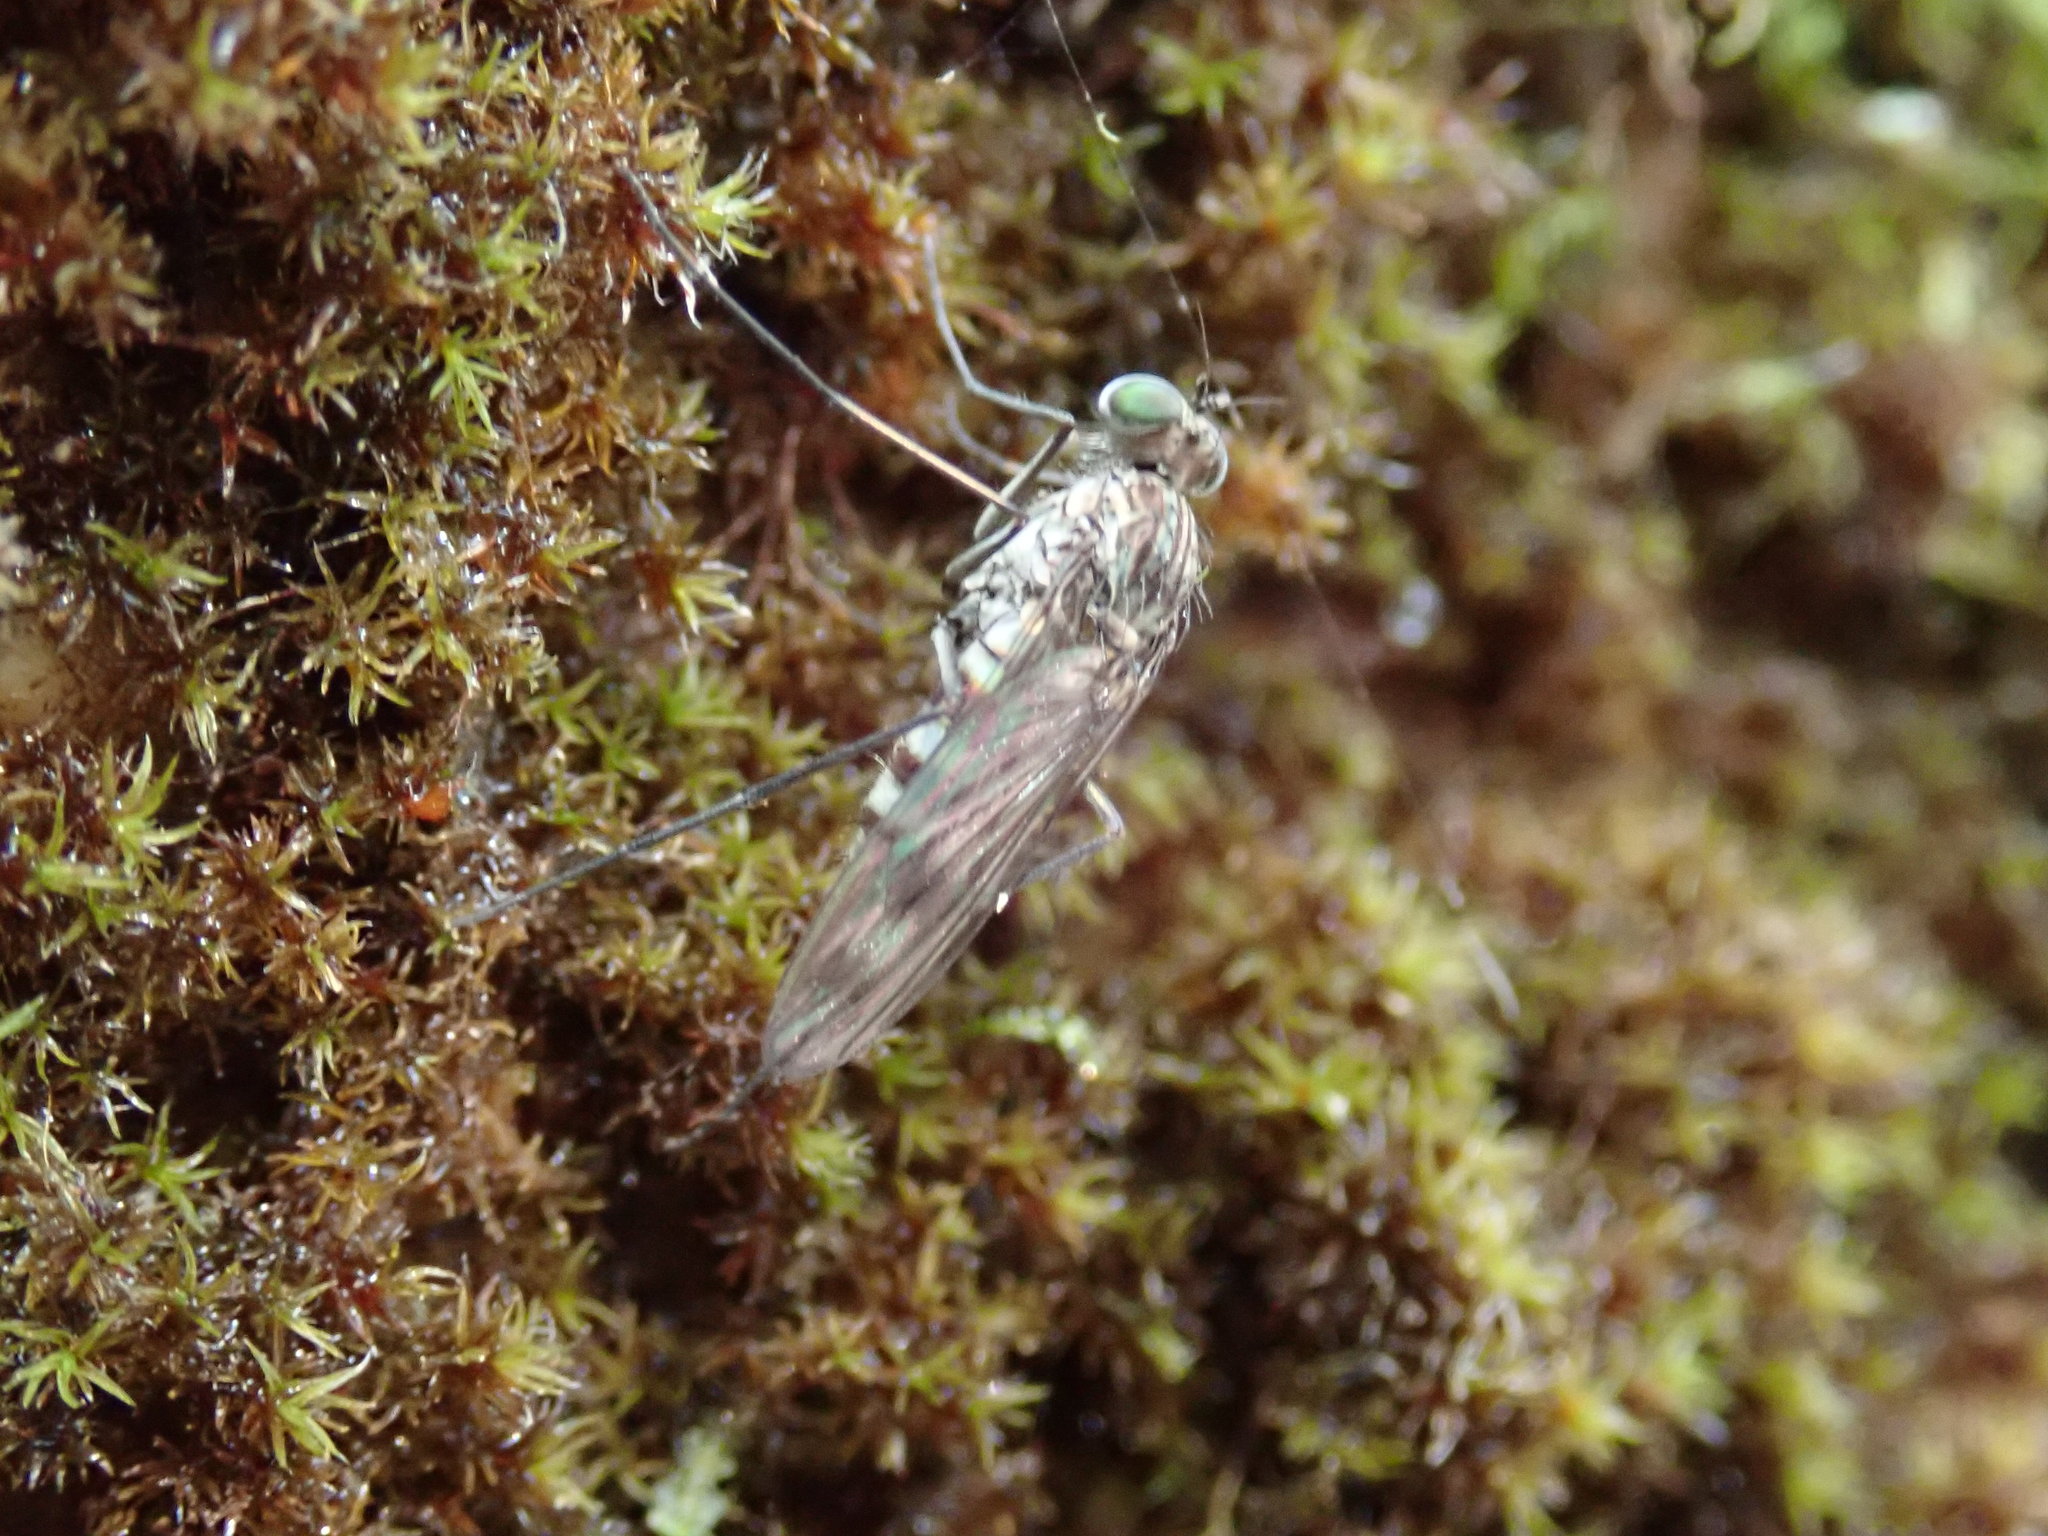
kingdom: Animalia
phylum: Arthropoda
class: Insecta
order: Diptera
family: Dolichopodidae
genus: Liancalus
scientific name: Liancalus genualis
